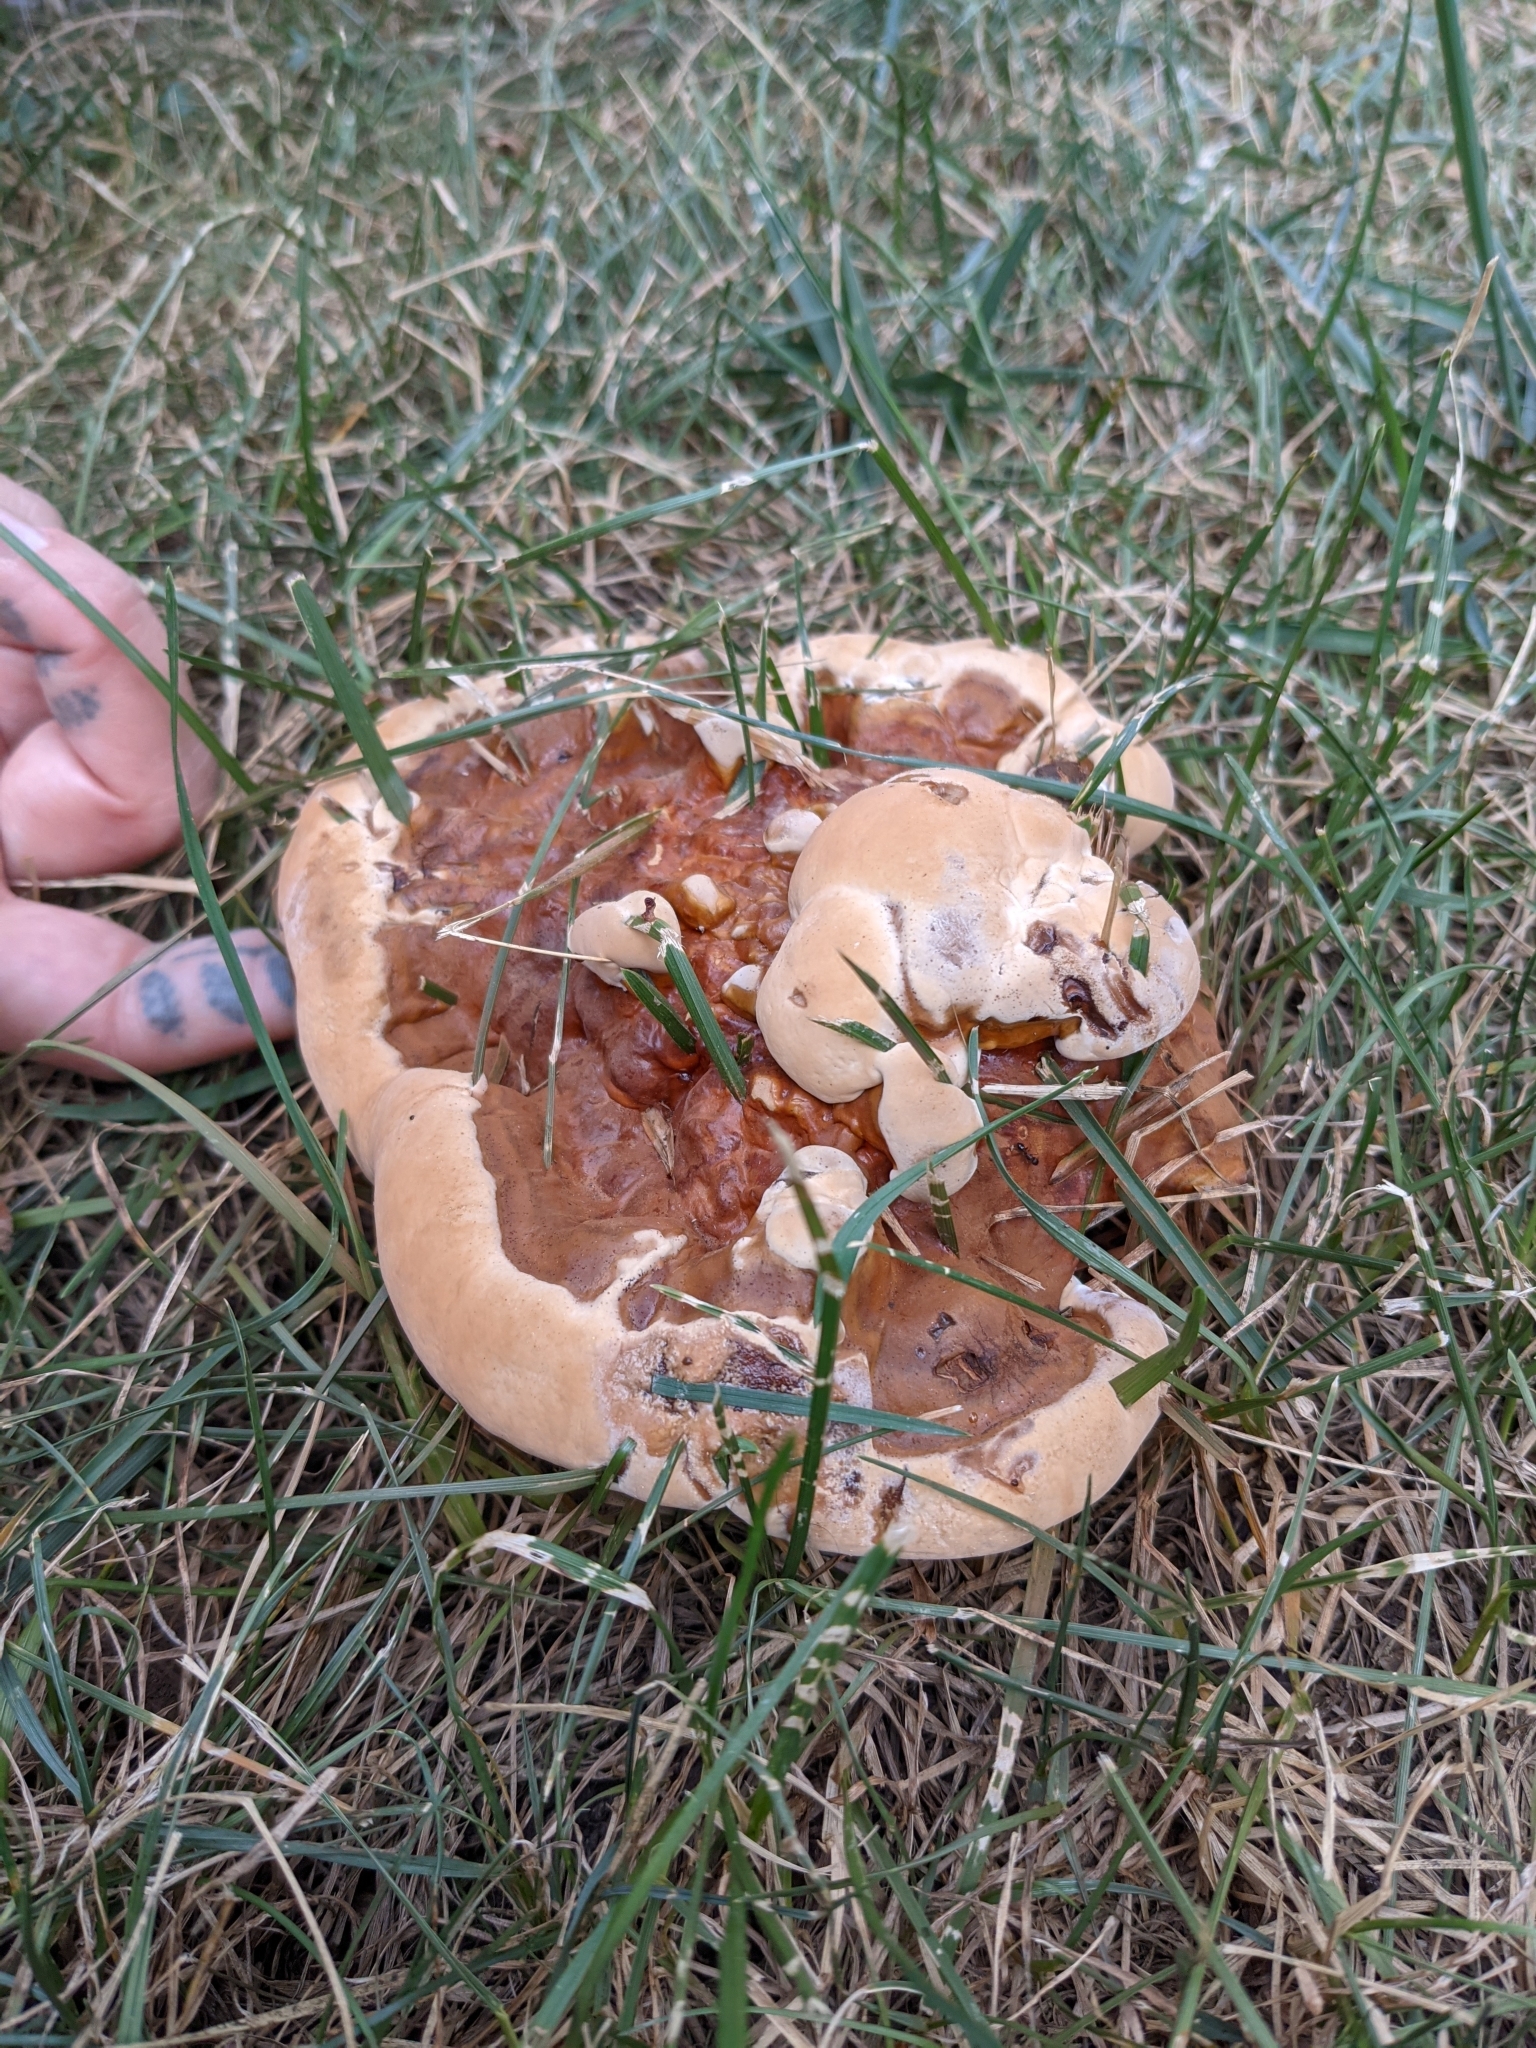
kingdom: Fungi
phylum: Basidiomycota
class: Agaricomycetes
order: Polyporales
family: Polyporaceae
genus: Ganoderma
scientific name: Ganoderma resinaceum
